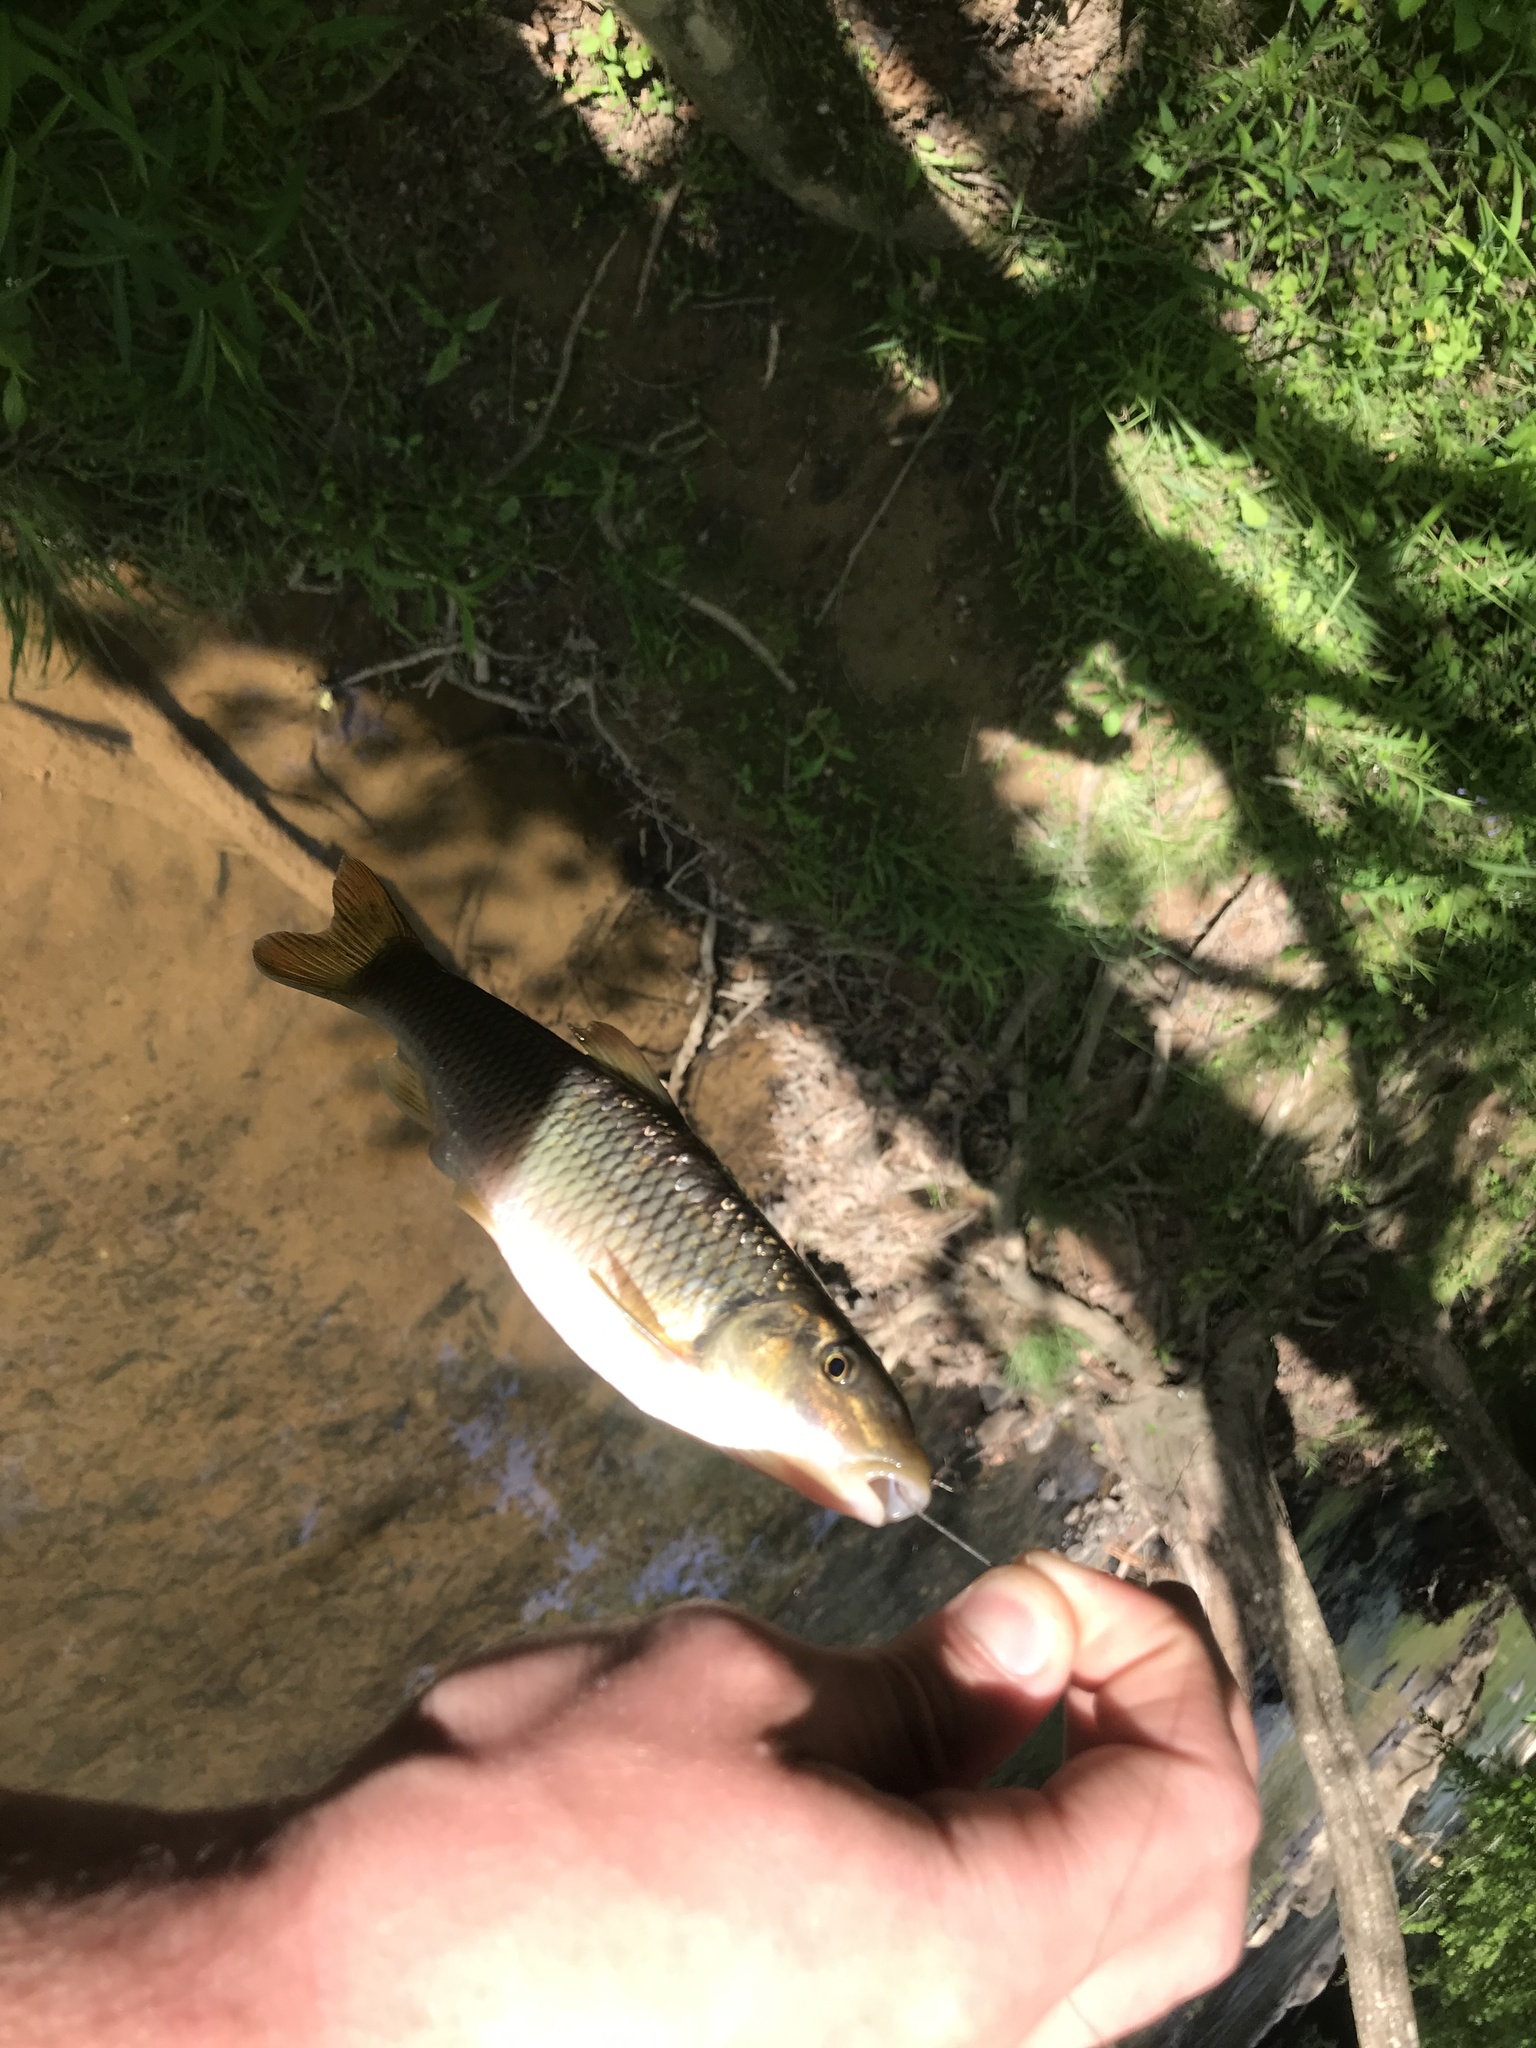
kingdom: Animalia
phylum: Chordata
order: Cypriniformes
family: Cyprinidae
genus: Nocomis
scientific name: Nocomis raneyi
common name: Bull chub
